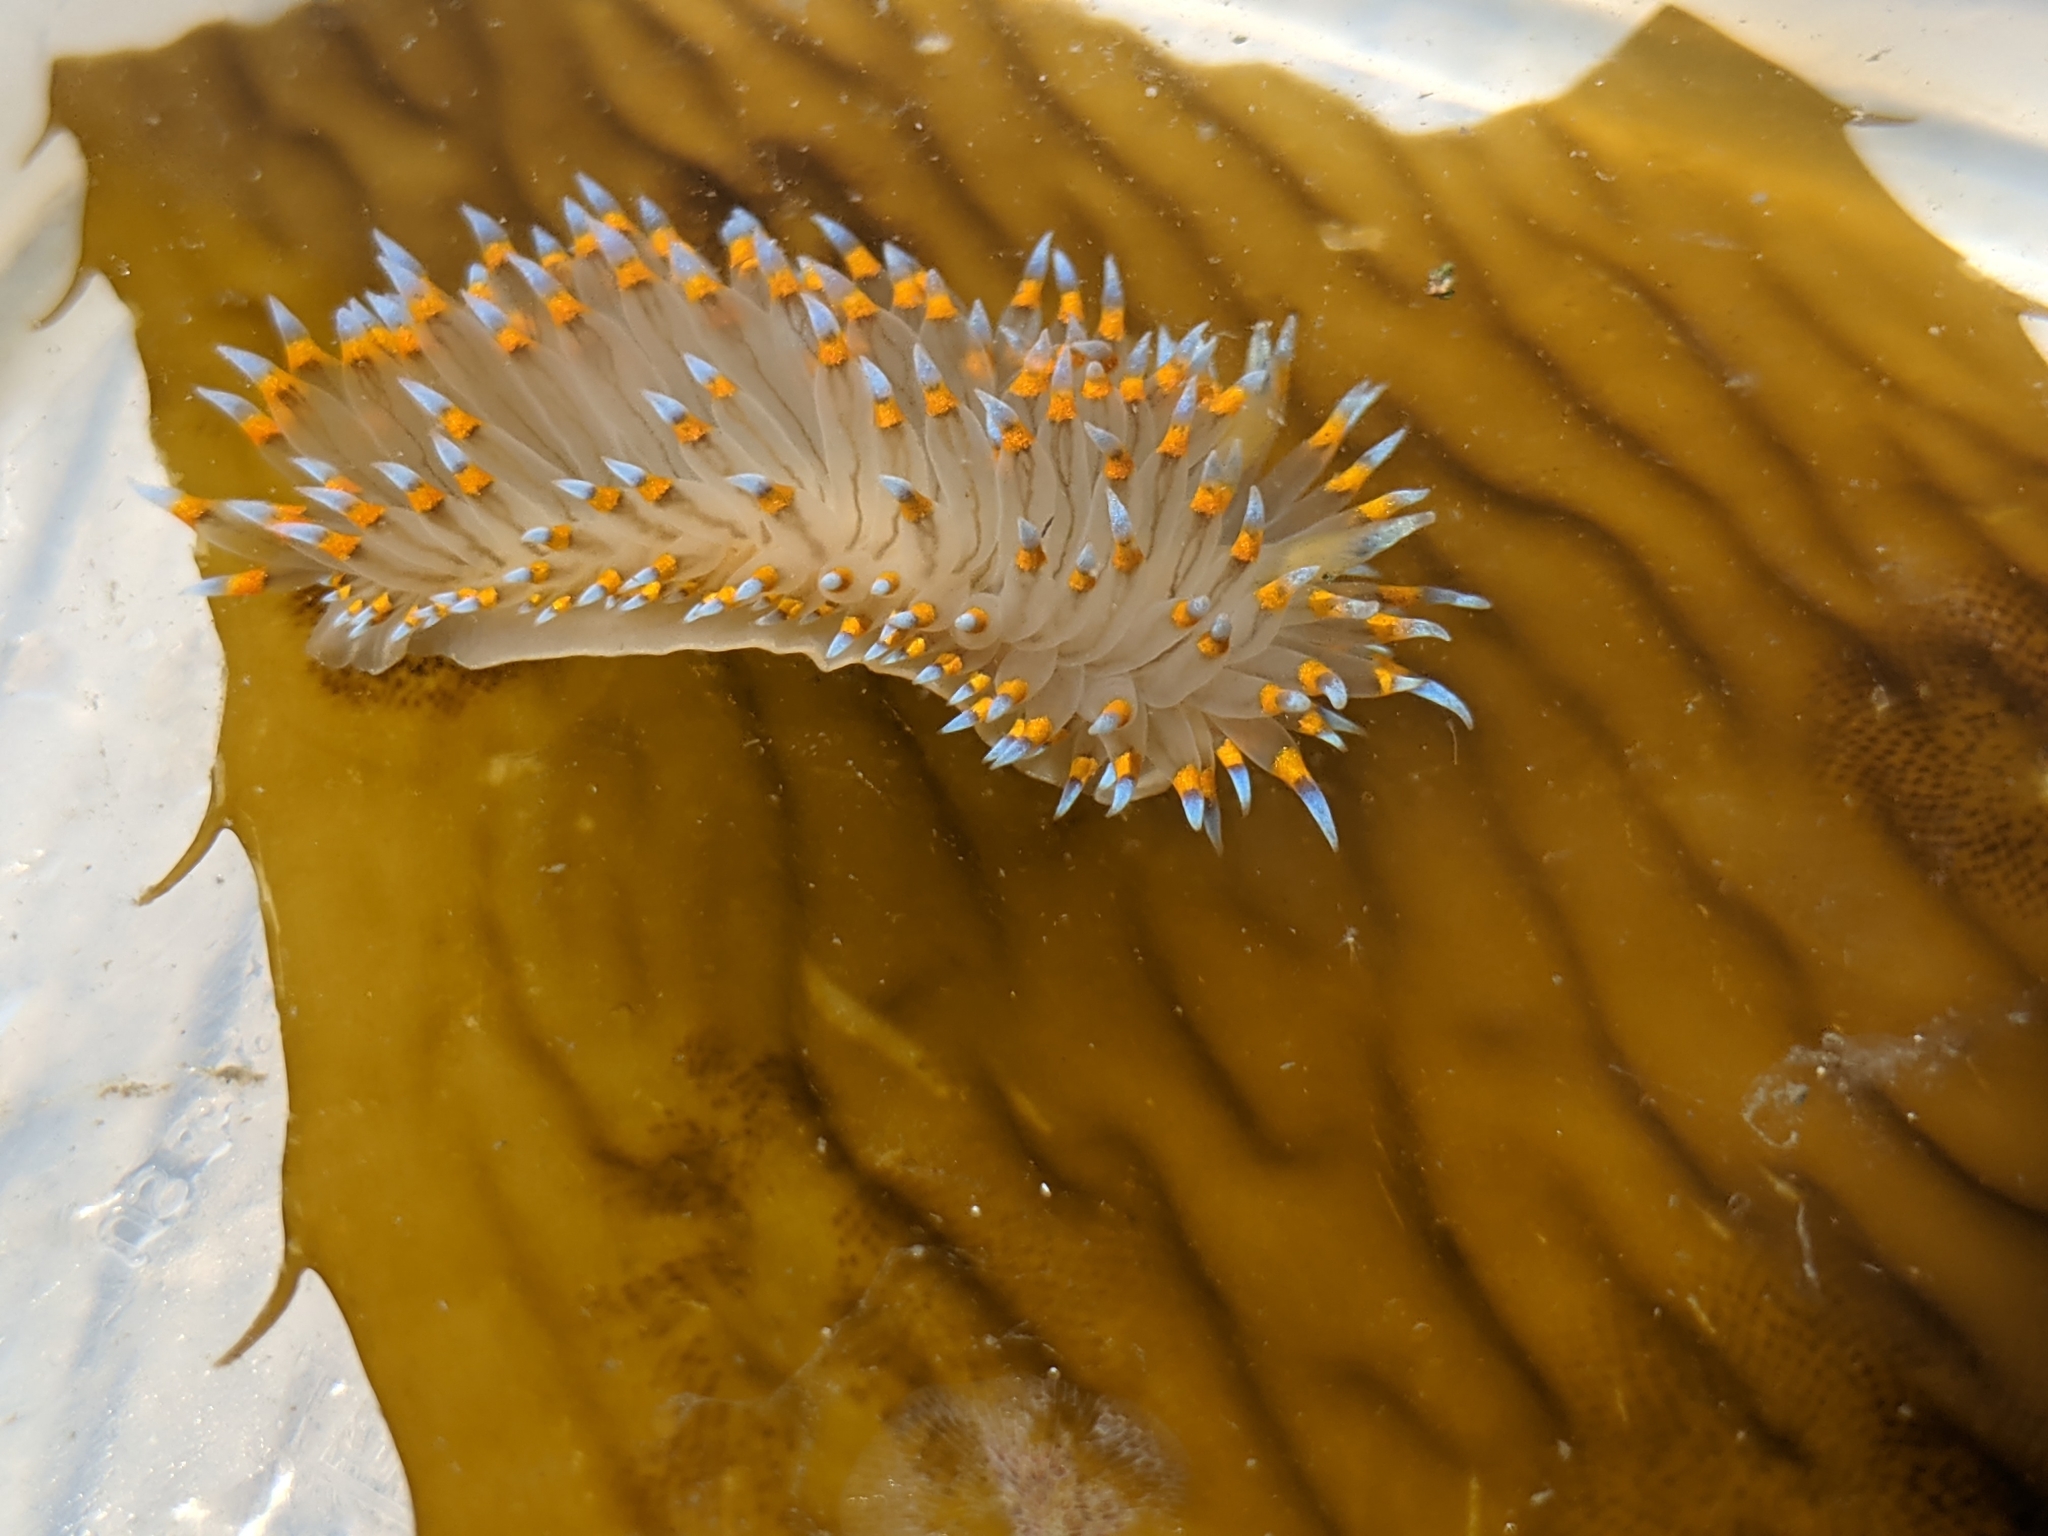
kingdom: Animalia
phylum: Mollusca
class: Gastropoda
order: Nudibranchia
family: Janolidae
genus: Antiopella
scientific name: Antiopella barbarensis
